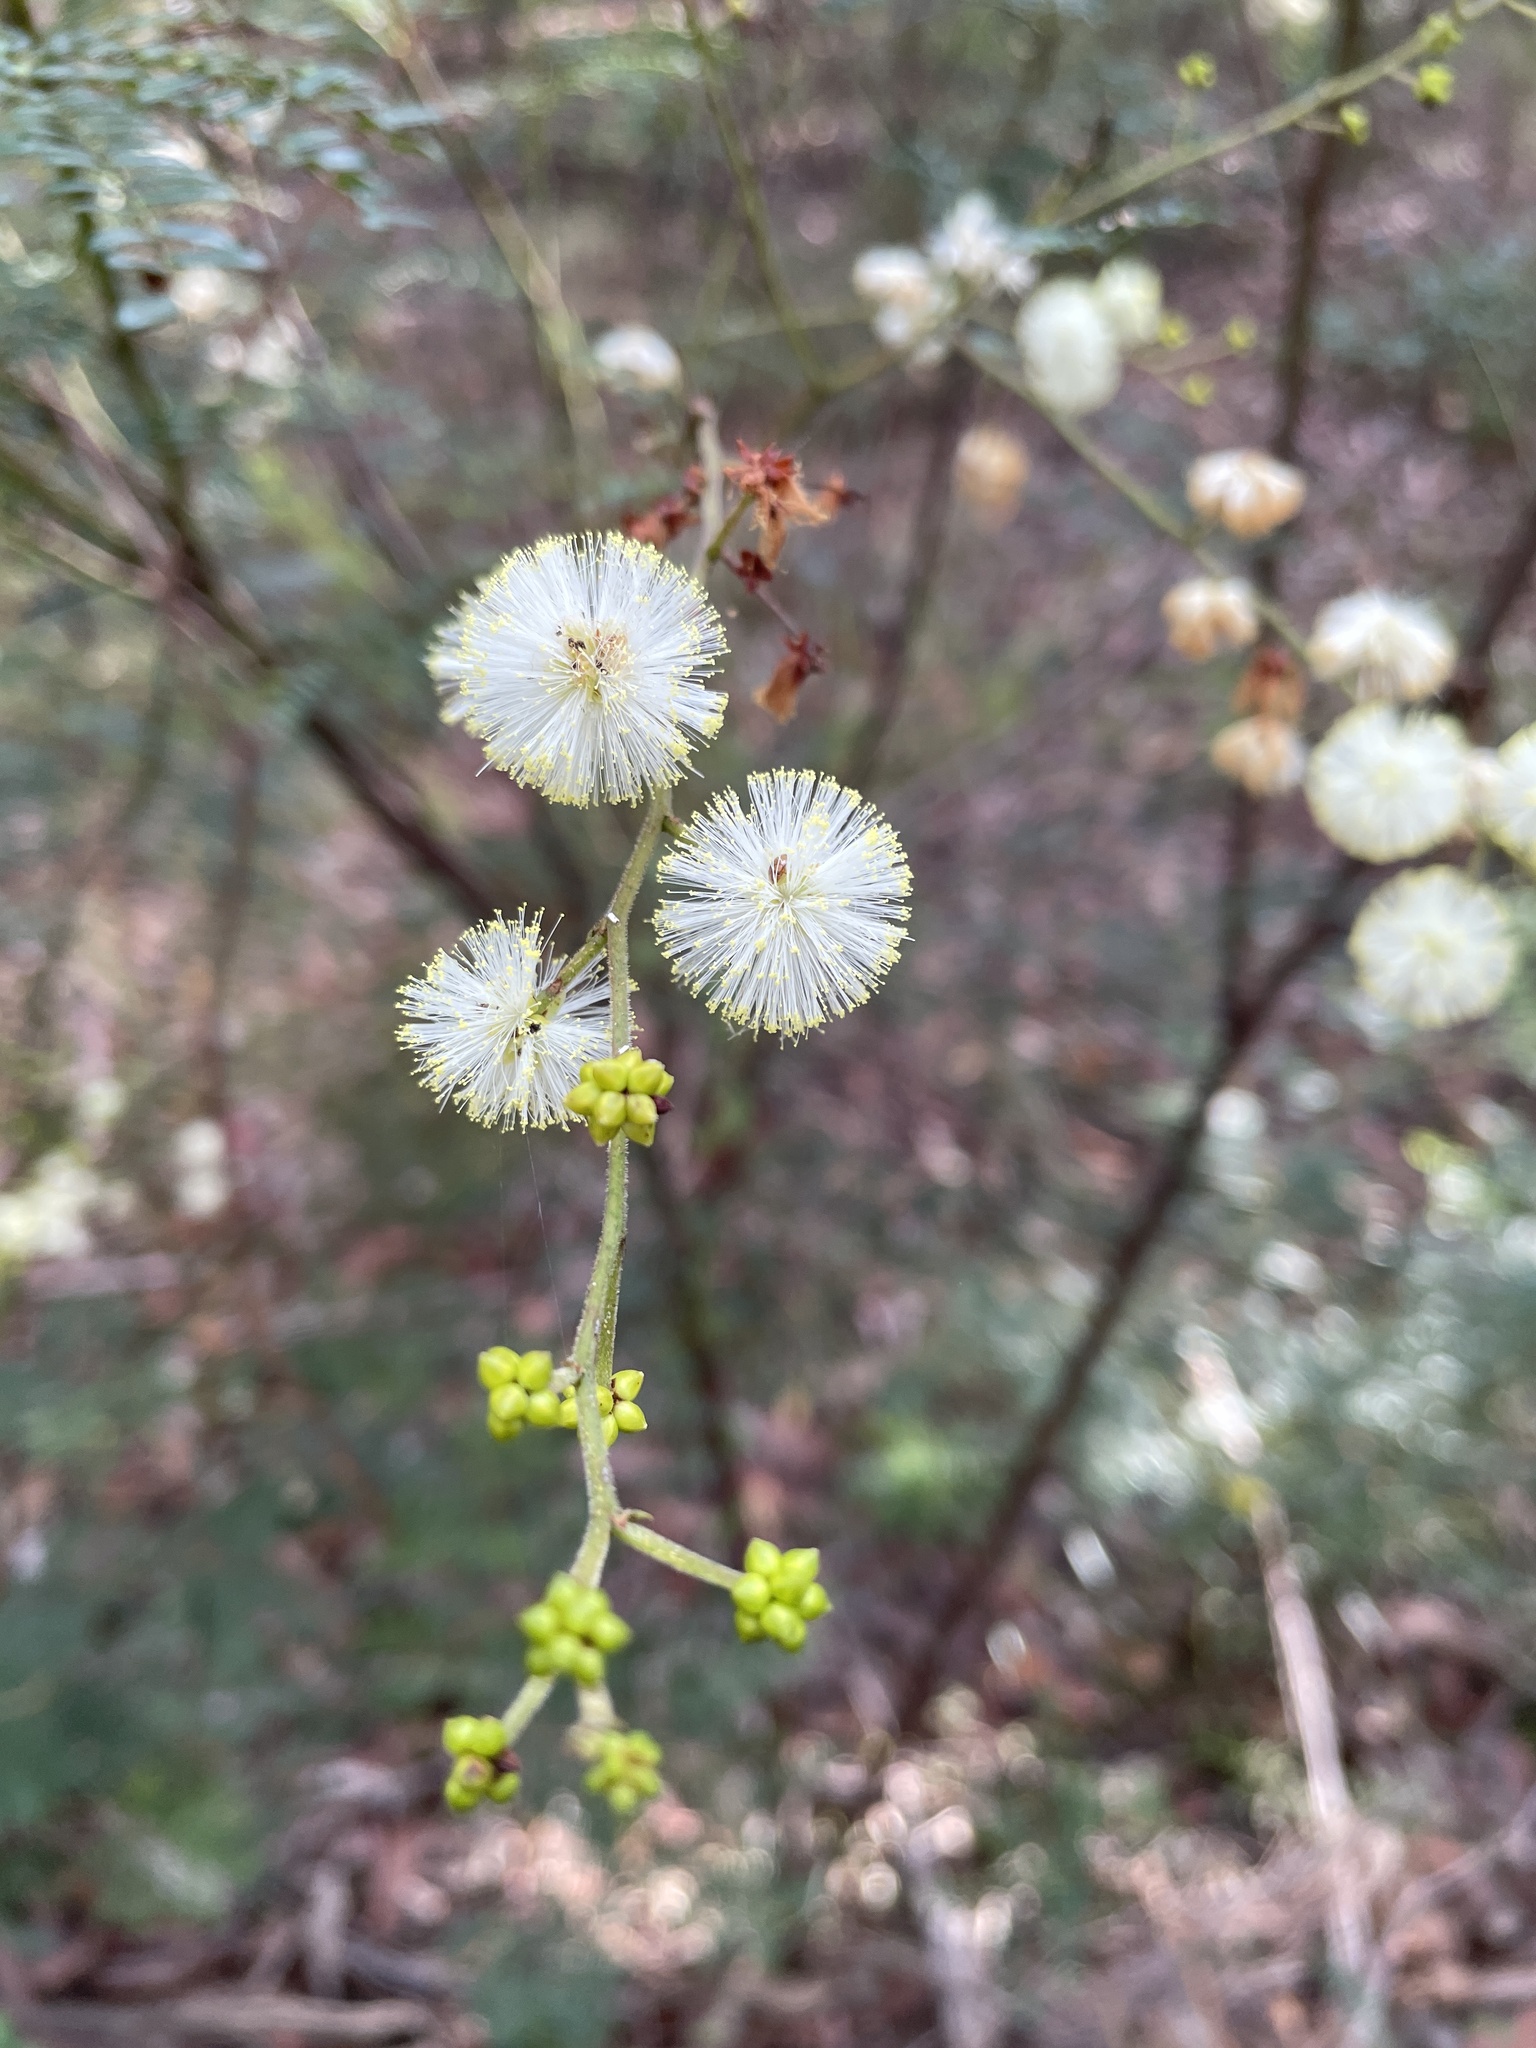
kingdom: Plantae
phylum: Tracheophyta
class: Magnoliopsida
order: Fabales
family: Fabaceae
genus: Acacia
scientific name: Acacia terminalis
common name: Cedar wattle
